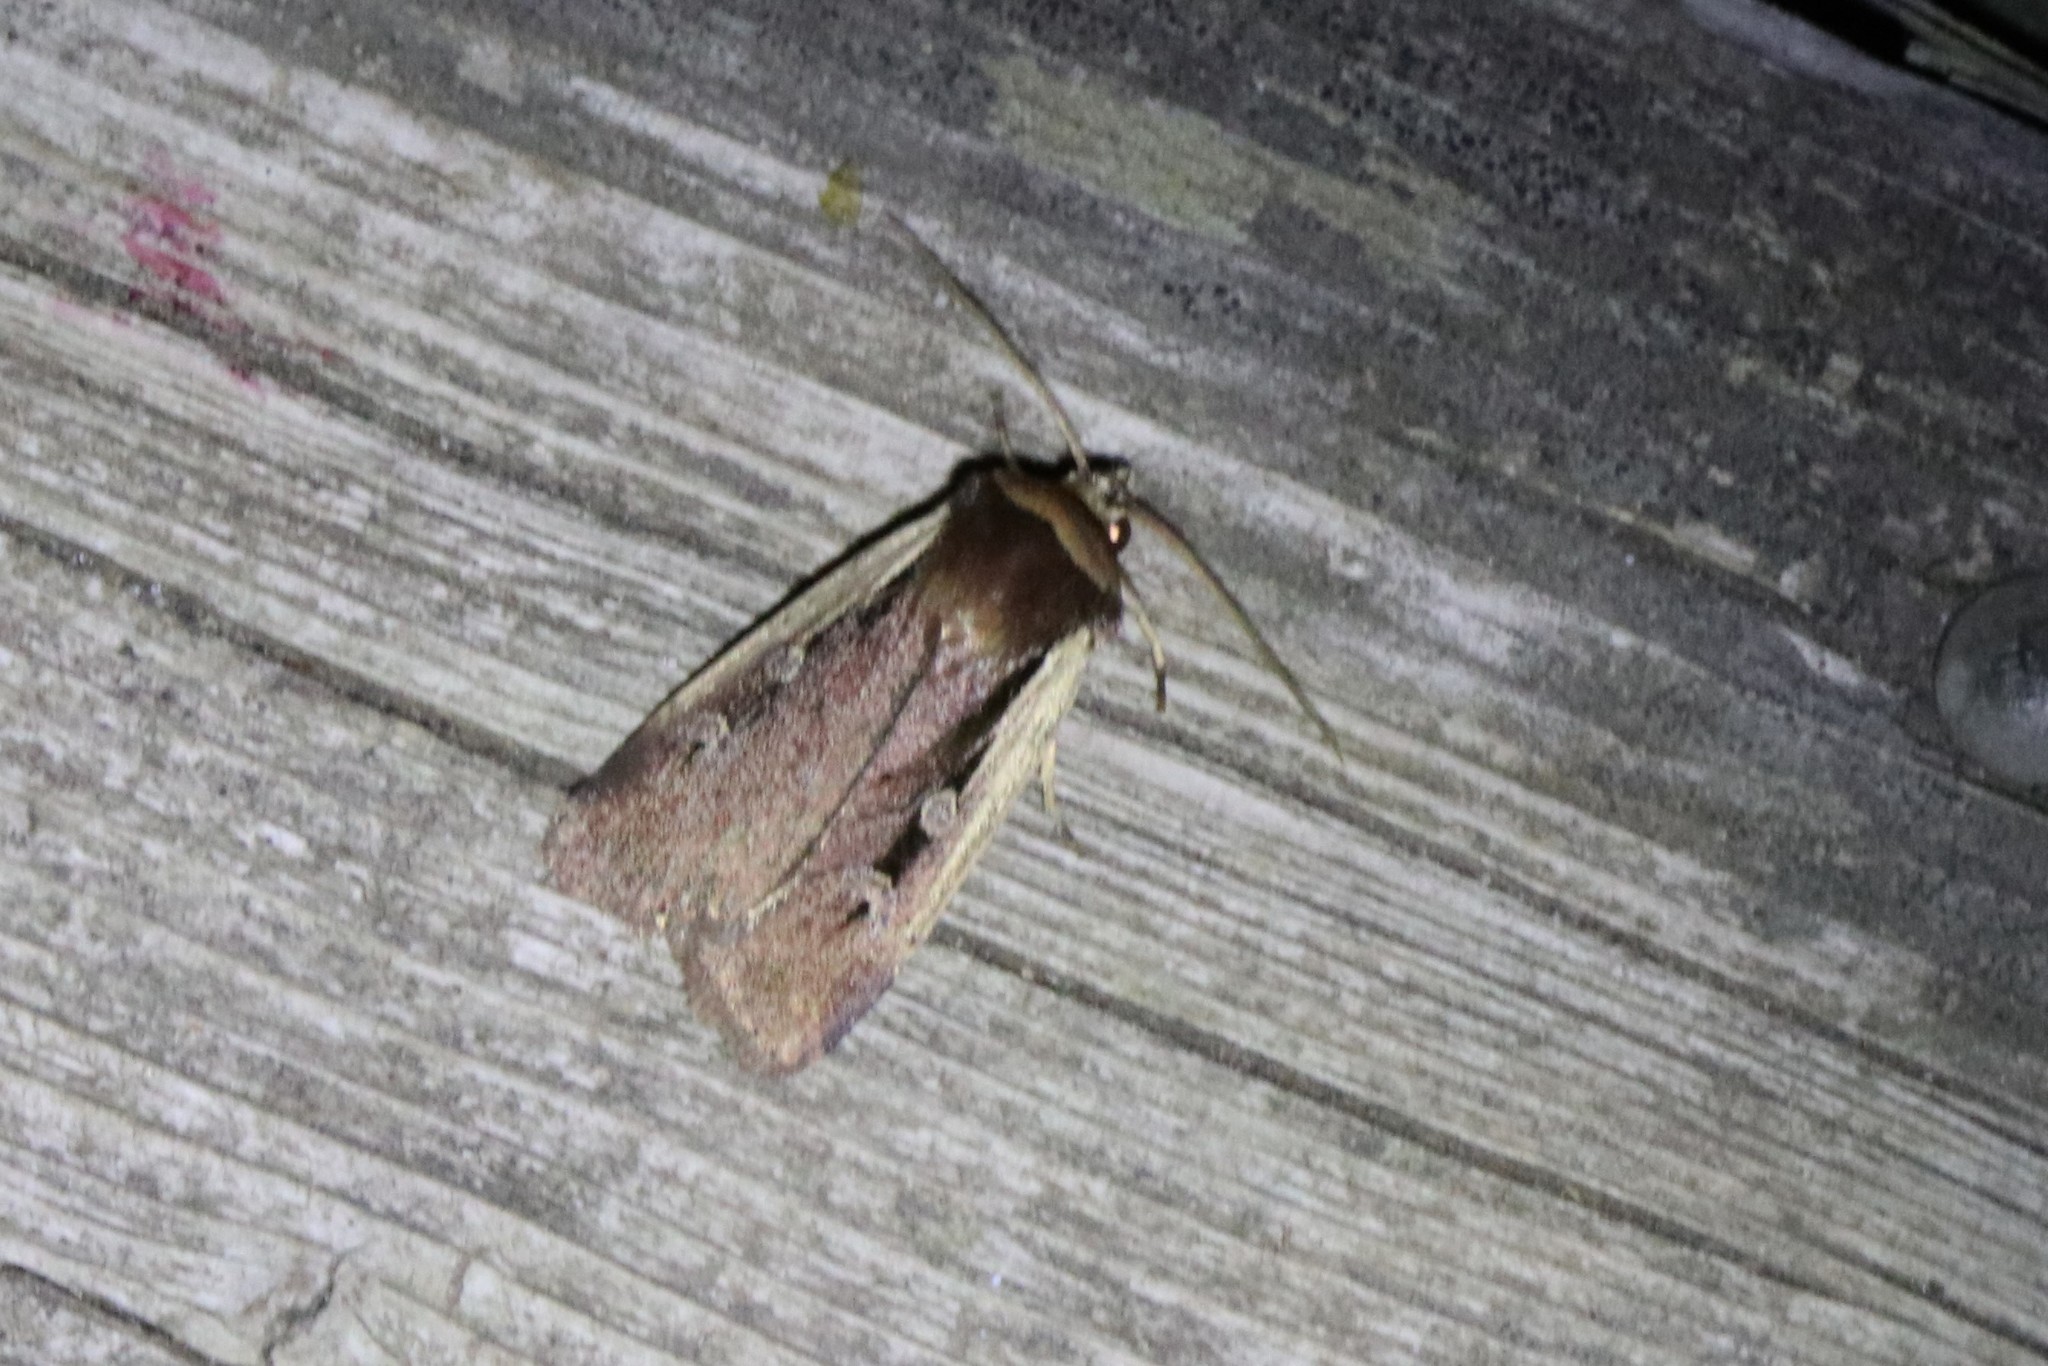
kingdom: Animalia
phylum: Arthropoda
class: Insecta
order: Lepidoptera
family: Noctuidae
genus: Ochropleura
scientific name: Ochropleura implecta
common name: Flame-shouldered dart
